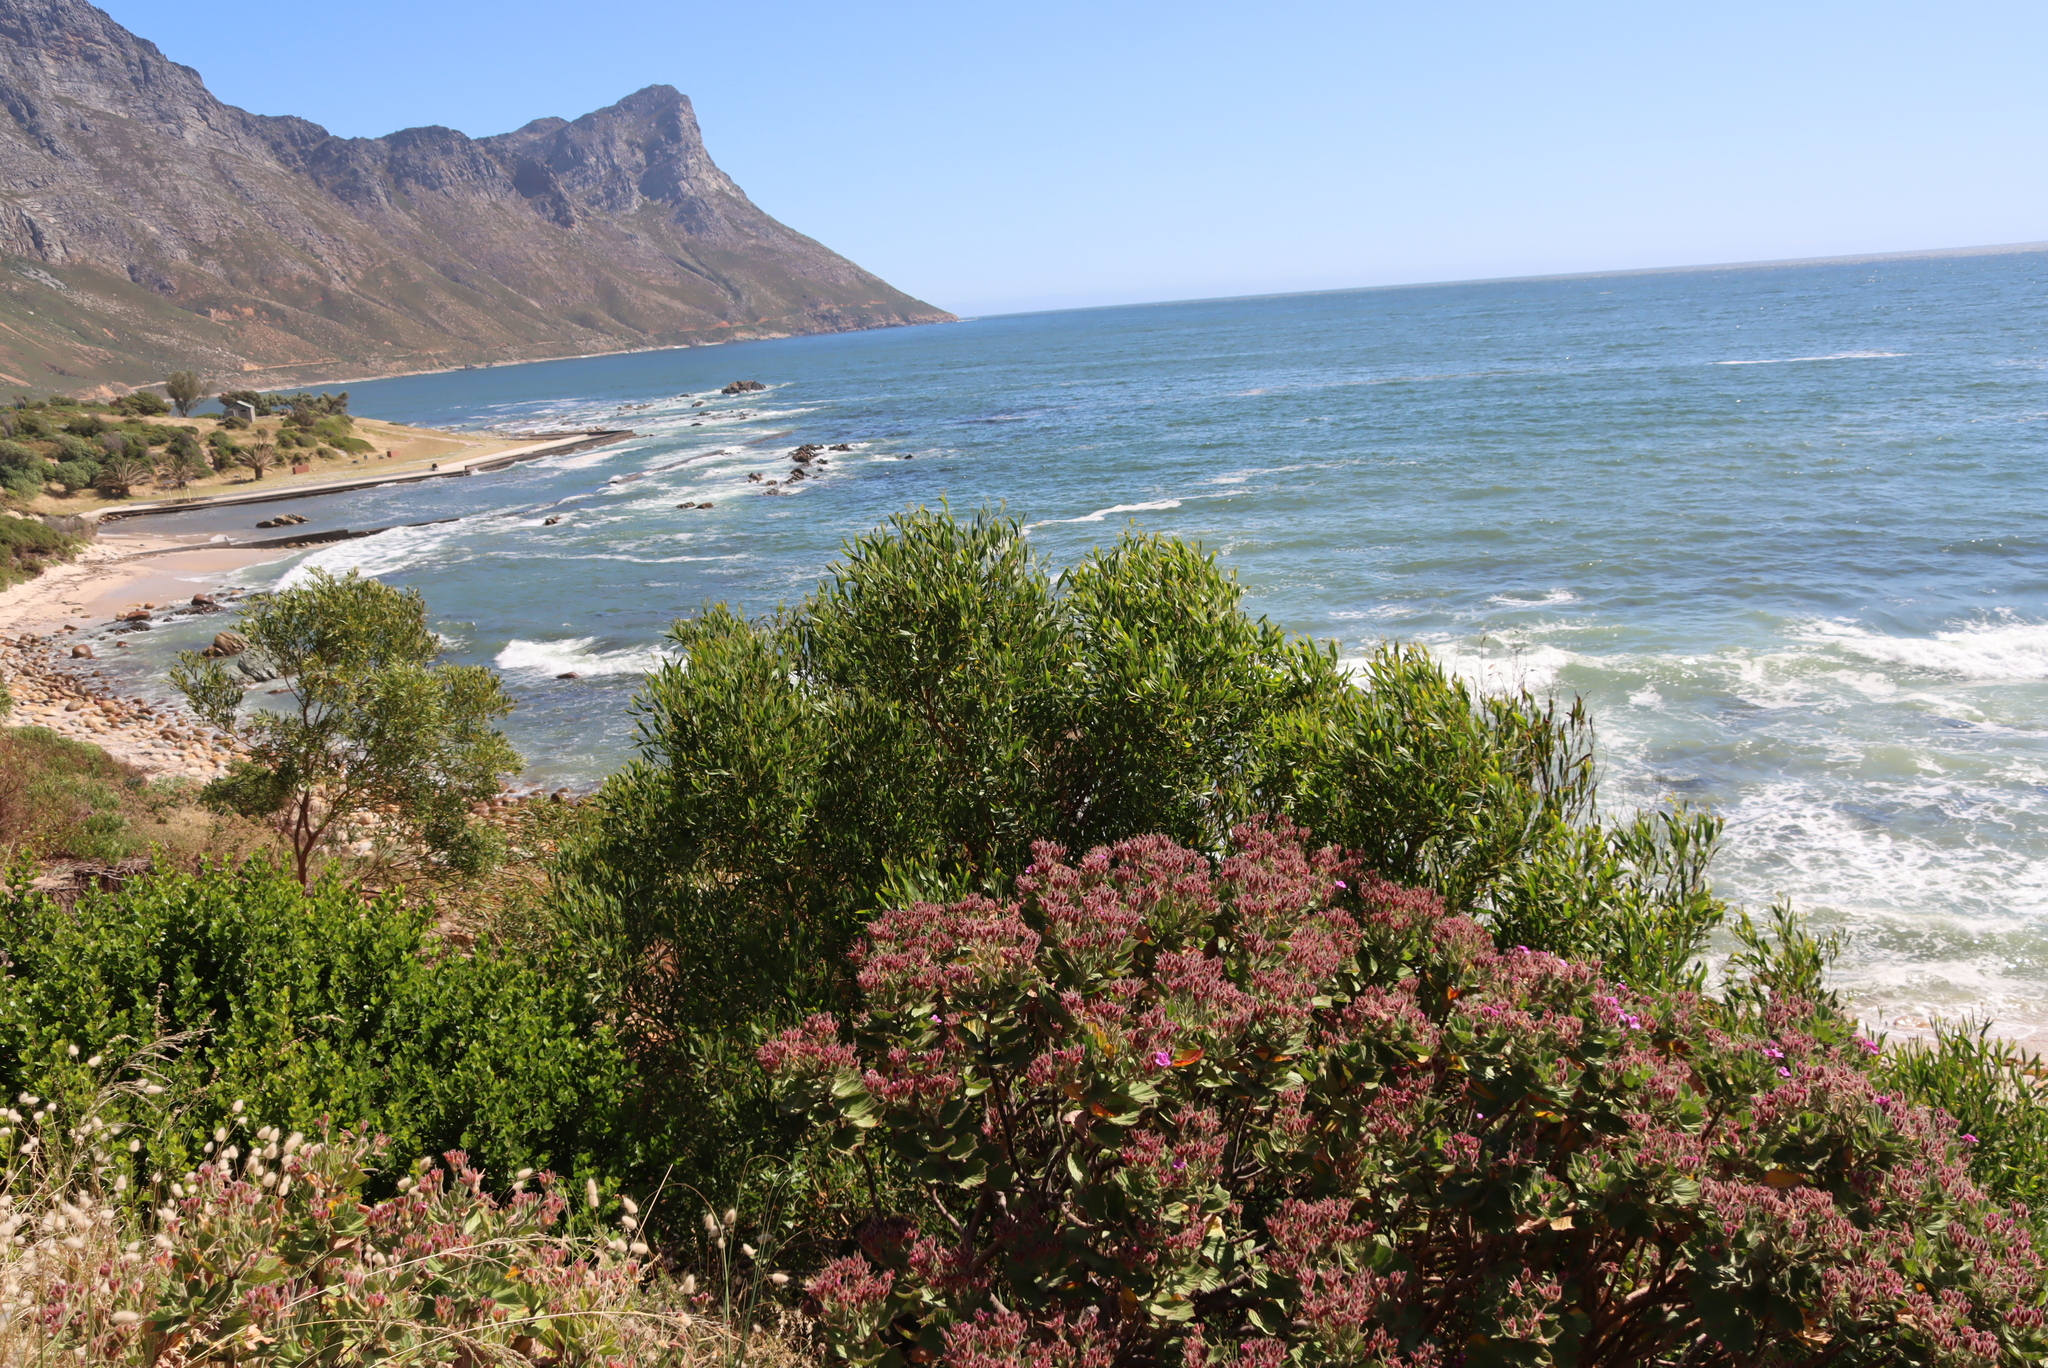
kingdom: Plantae
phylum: Tracheophyta
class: Magnoliopsida
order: Fabales
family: Fabaceae
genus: Acacia
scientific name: Acacia cyclops
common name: Coastal wattle
